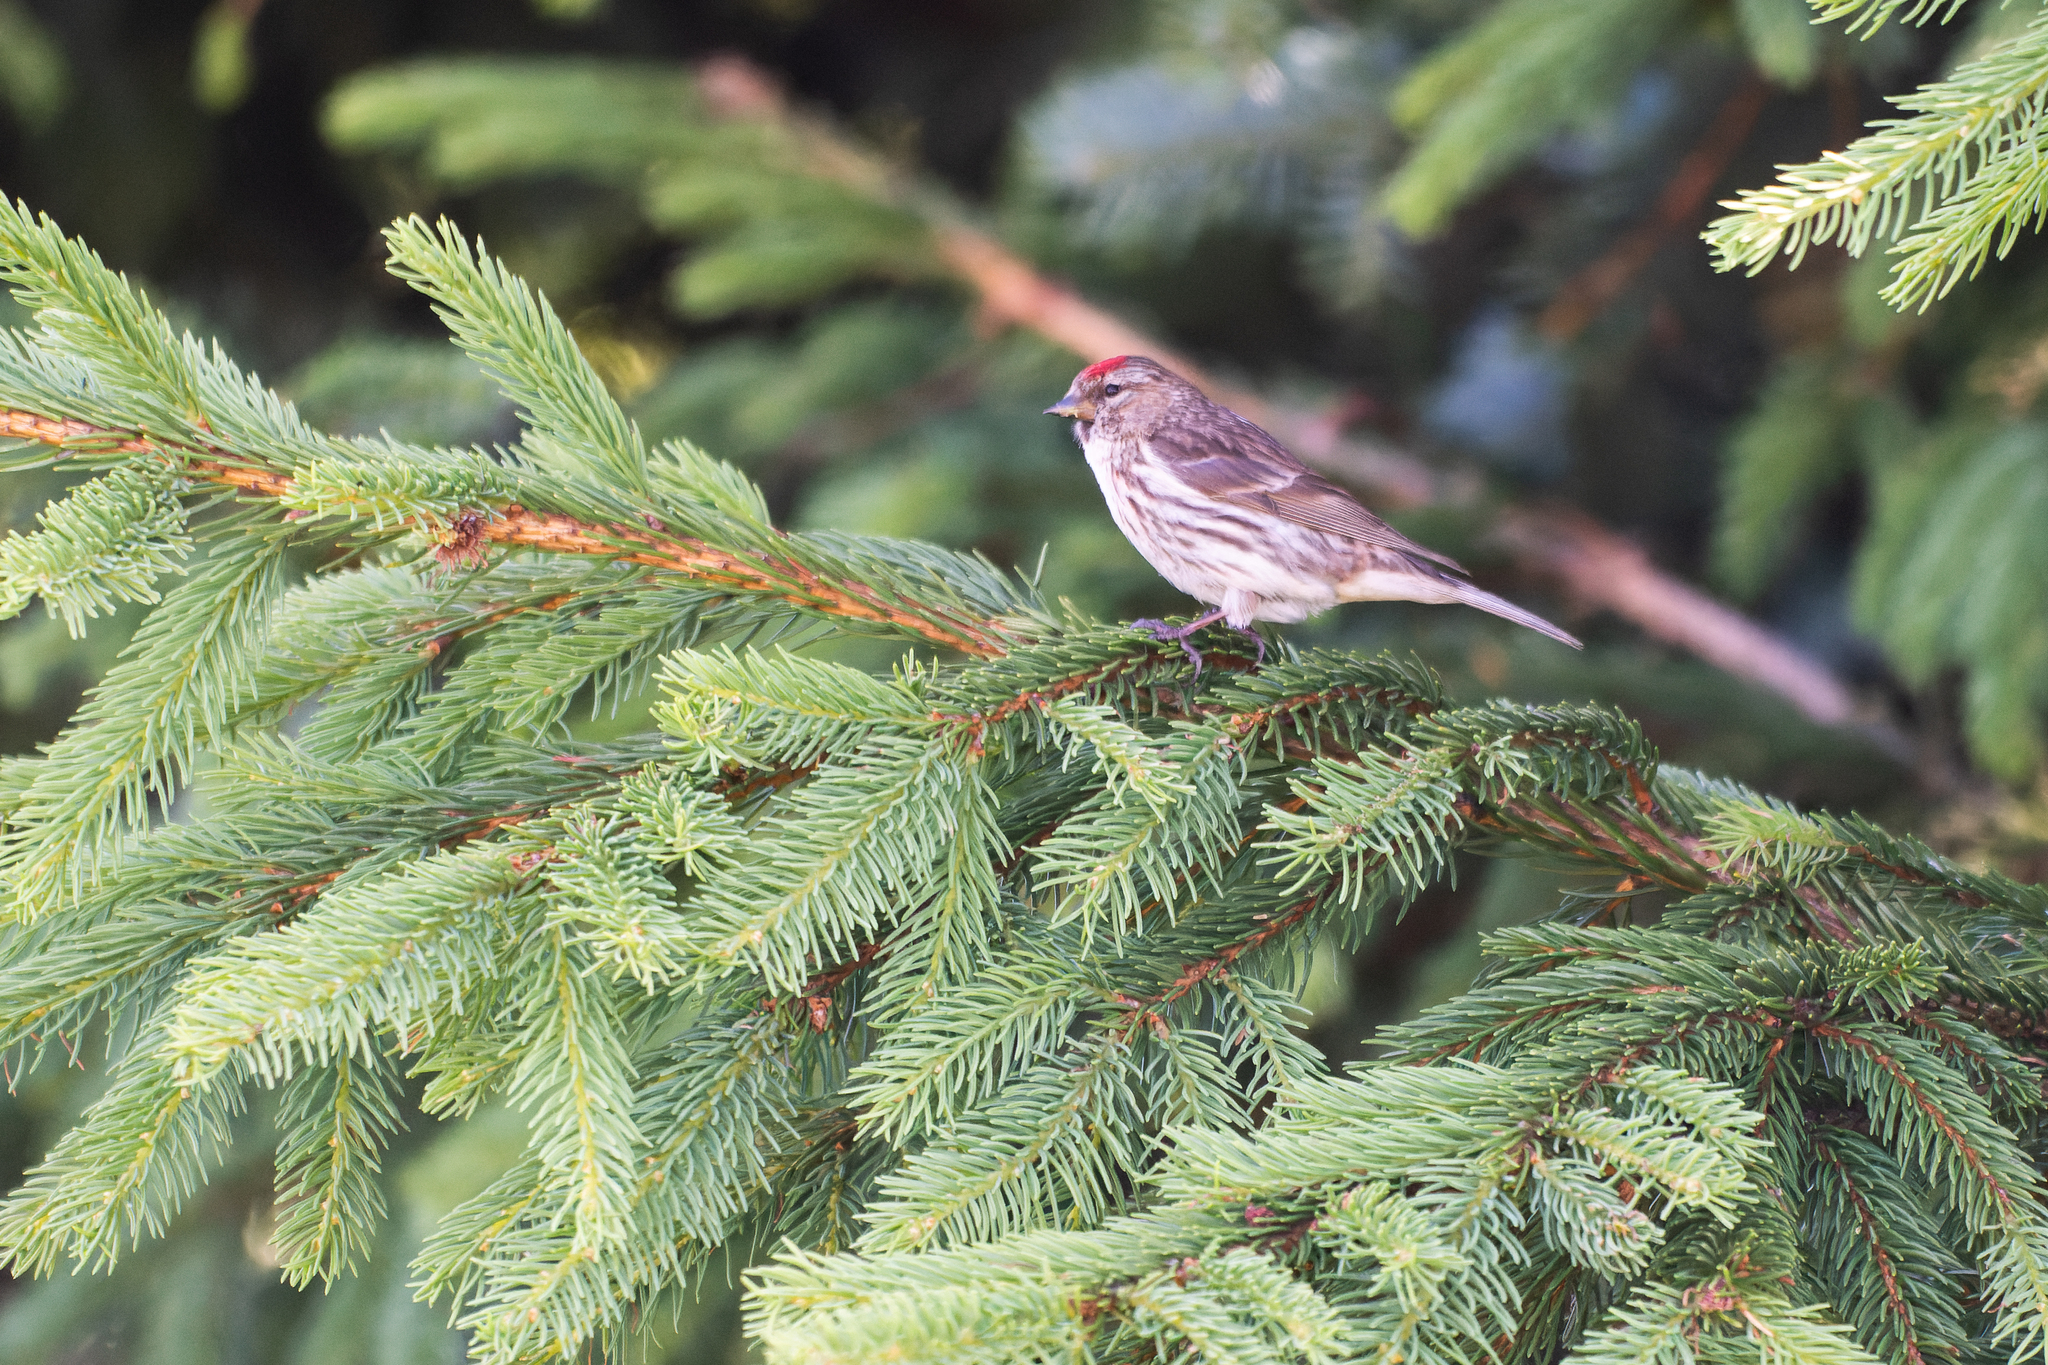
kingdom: Animalia
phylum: Chordata
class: Aves
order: Passeriformes
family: Fringillidae
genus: Acanthis
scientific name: Acanthis flammea
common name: Common redpoll
